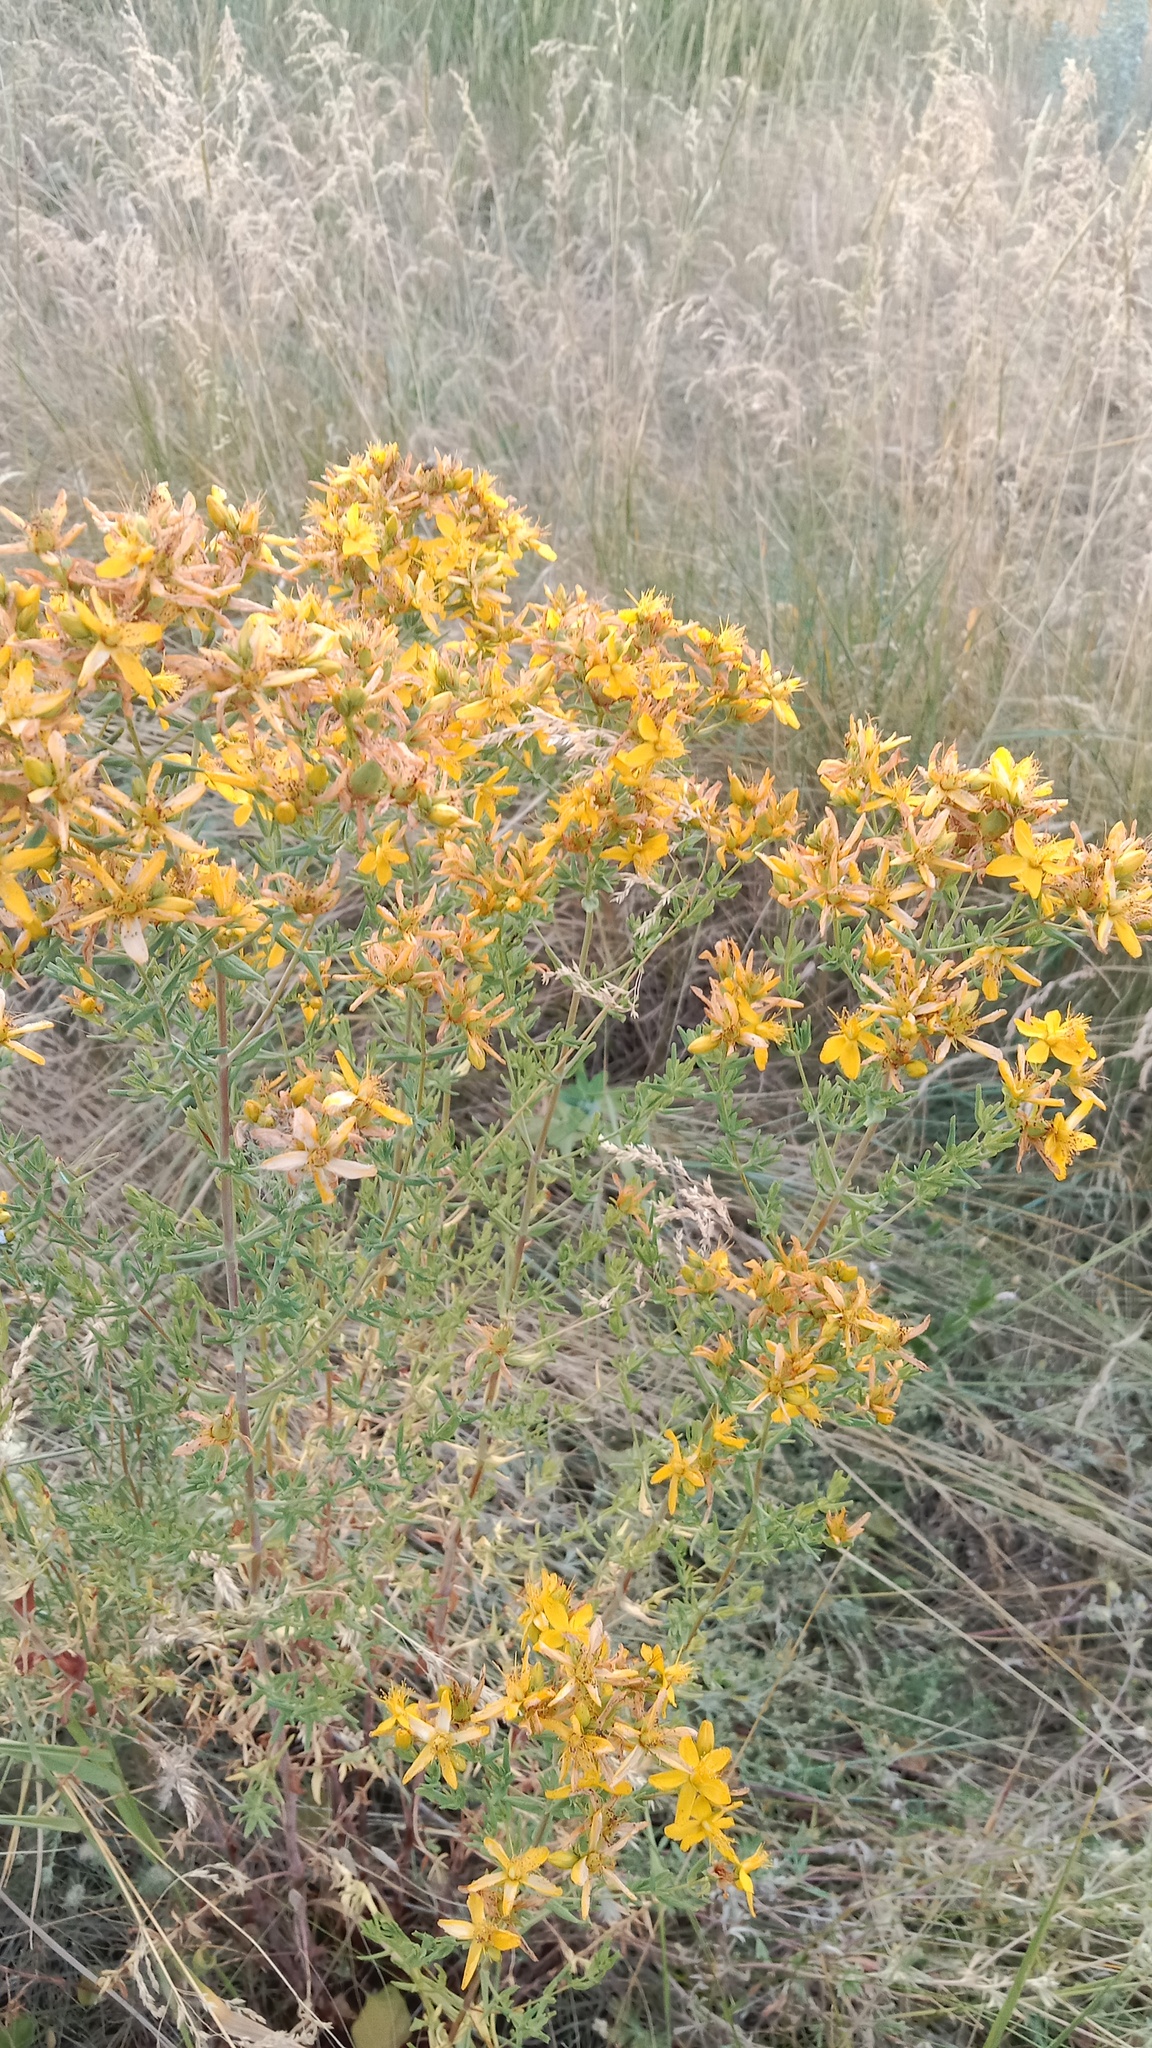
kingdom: Plantae
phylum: Tracheophyta
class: Magnoliopsida
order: Malpighiales
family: Hypericaceae
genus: Hypericum
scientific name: Hypericum perforatum
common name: Common st. johnswort
